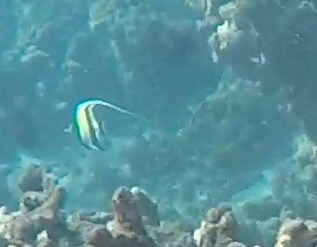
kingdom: Animalia
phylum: Chordata
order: Perciformes
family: Zanclidae
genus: Zanclus
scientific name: Zanclus cornutus
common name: Moorish idol
